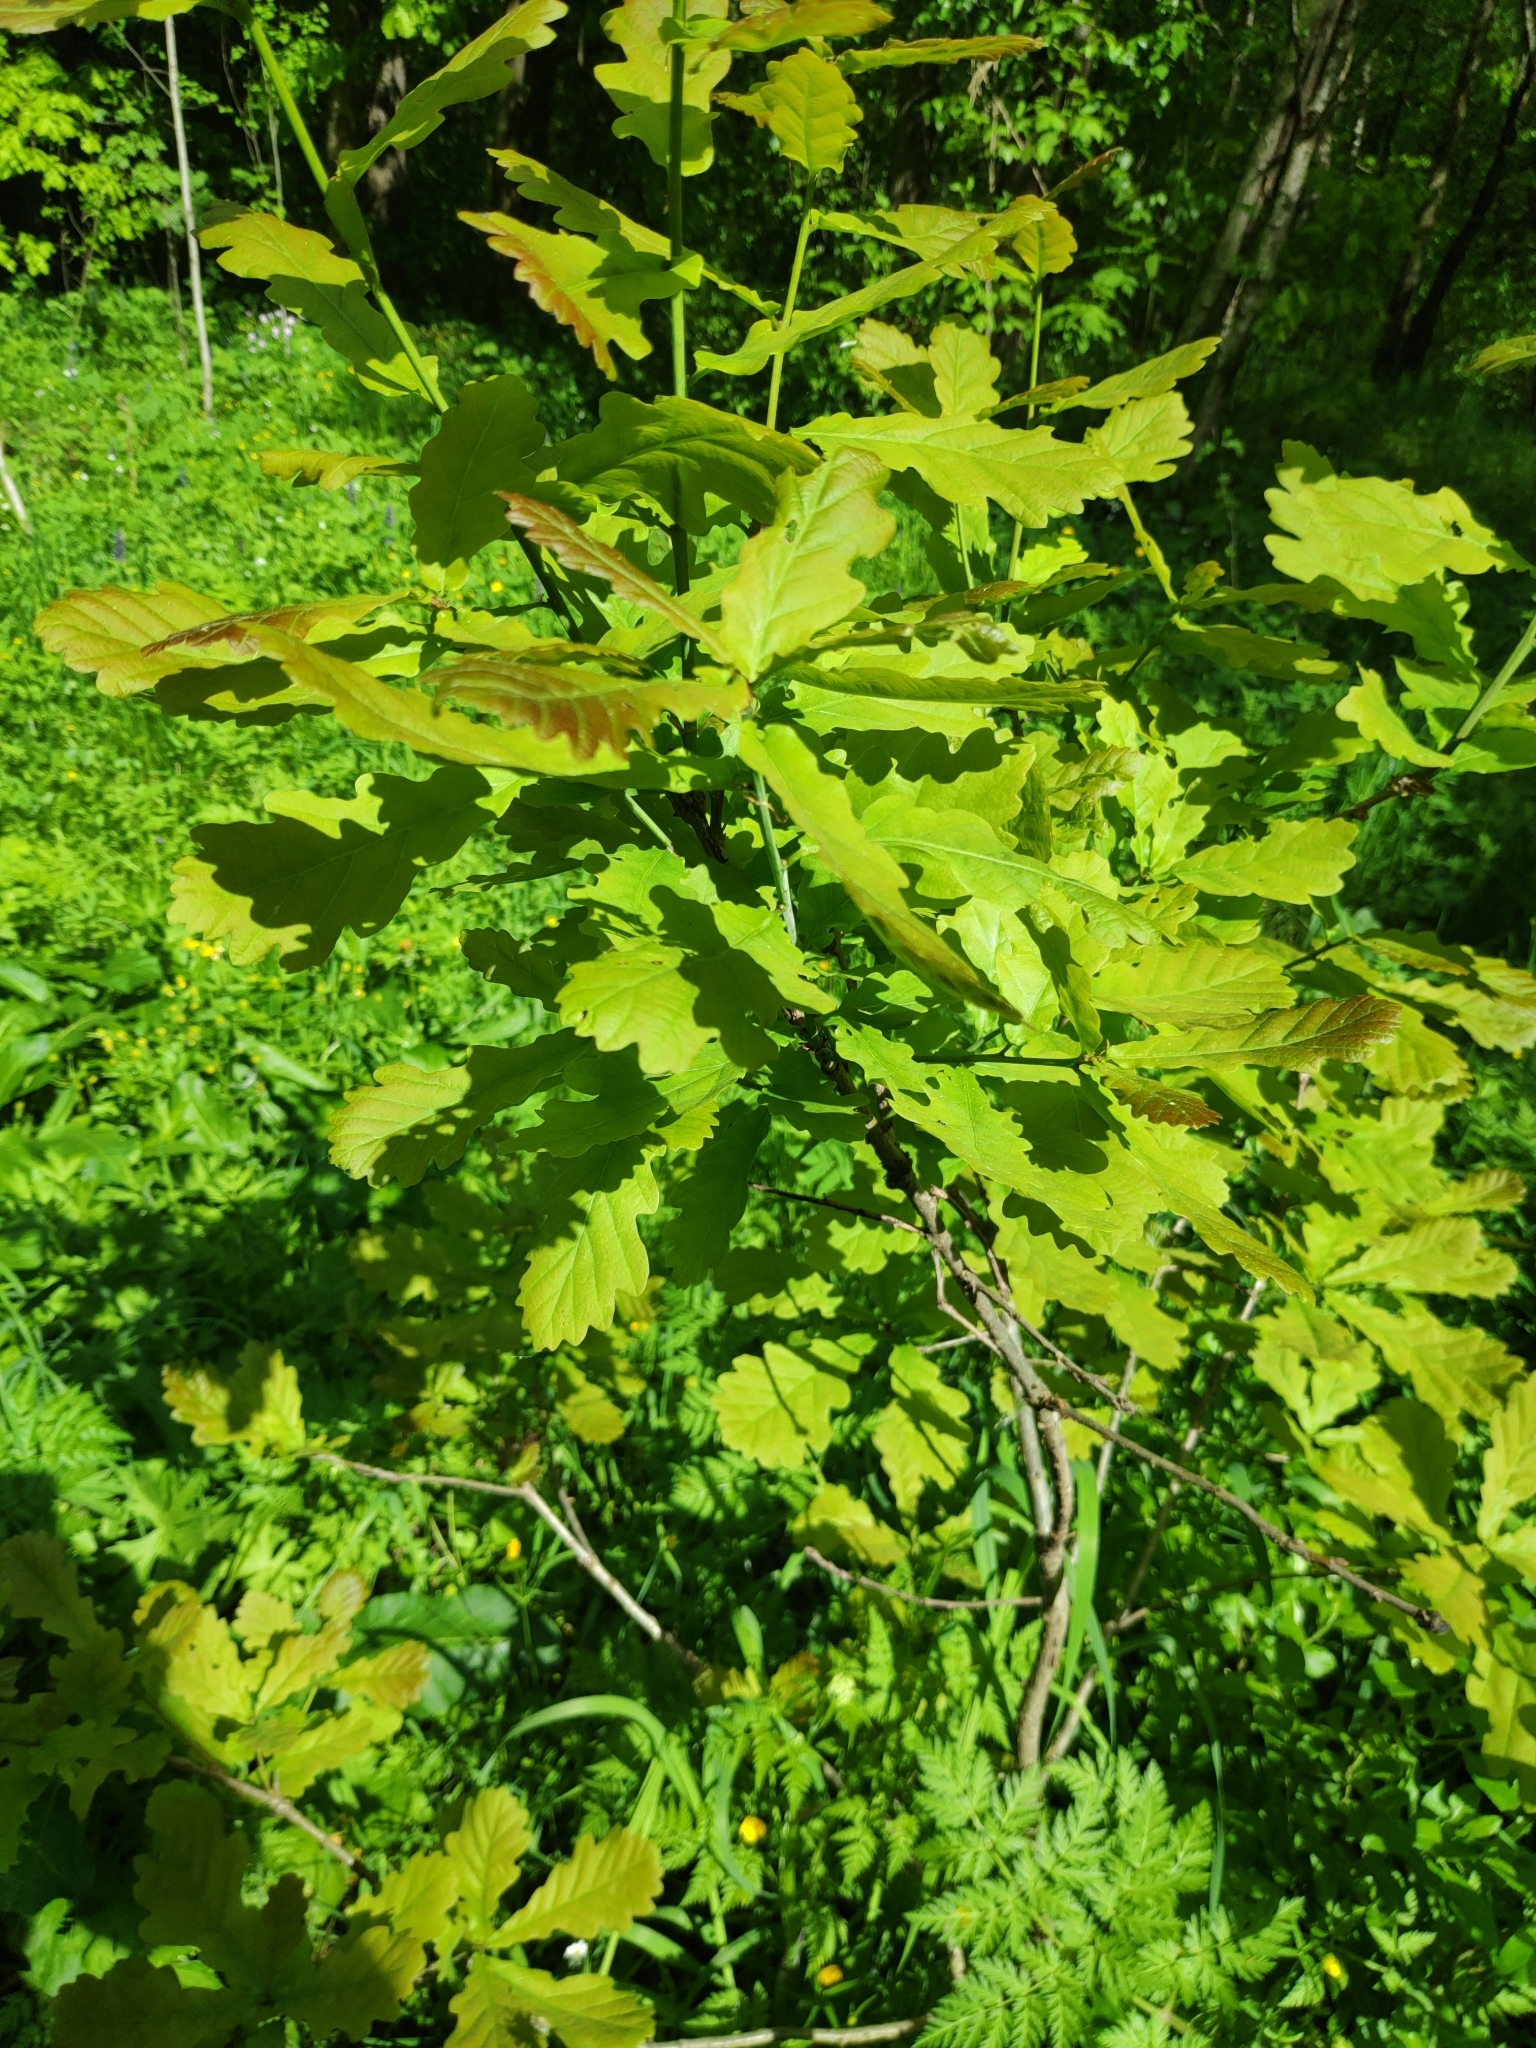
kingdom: Plantae
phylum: Tracheophyta
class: Magnoliopsida
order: Fagales
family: Fagaceae
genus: Quercus
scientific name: Quercus robur
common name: Pedunculate oak
